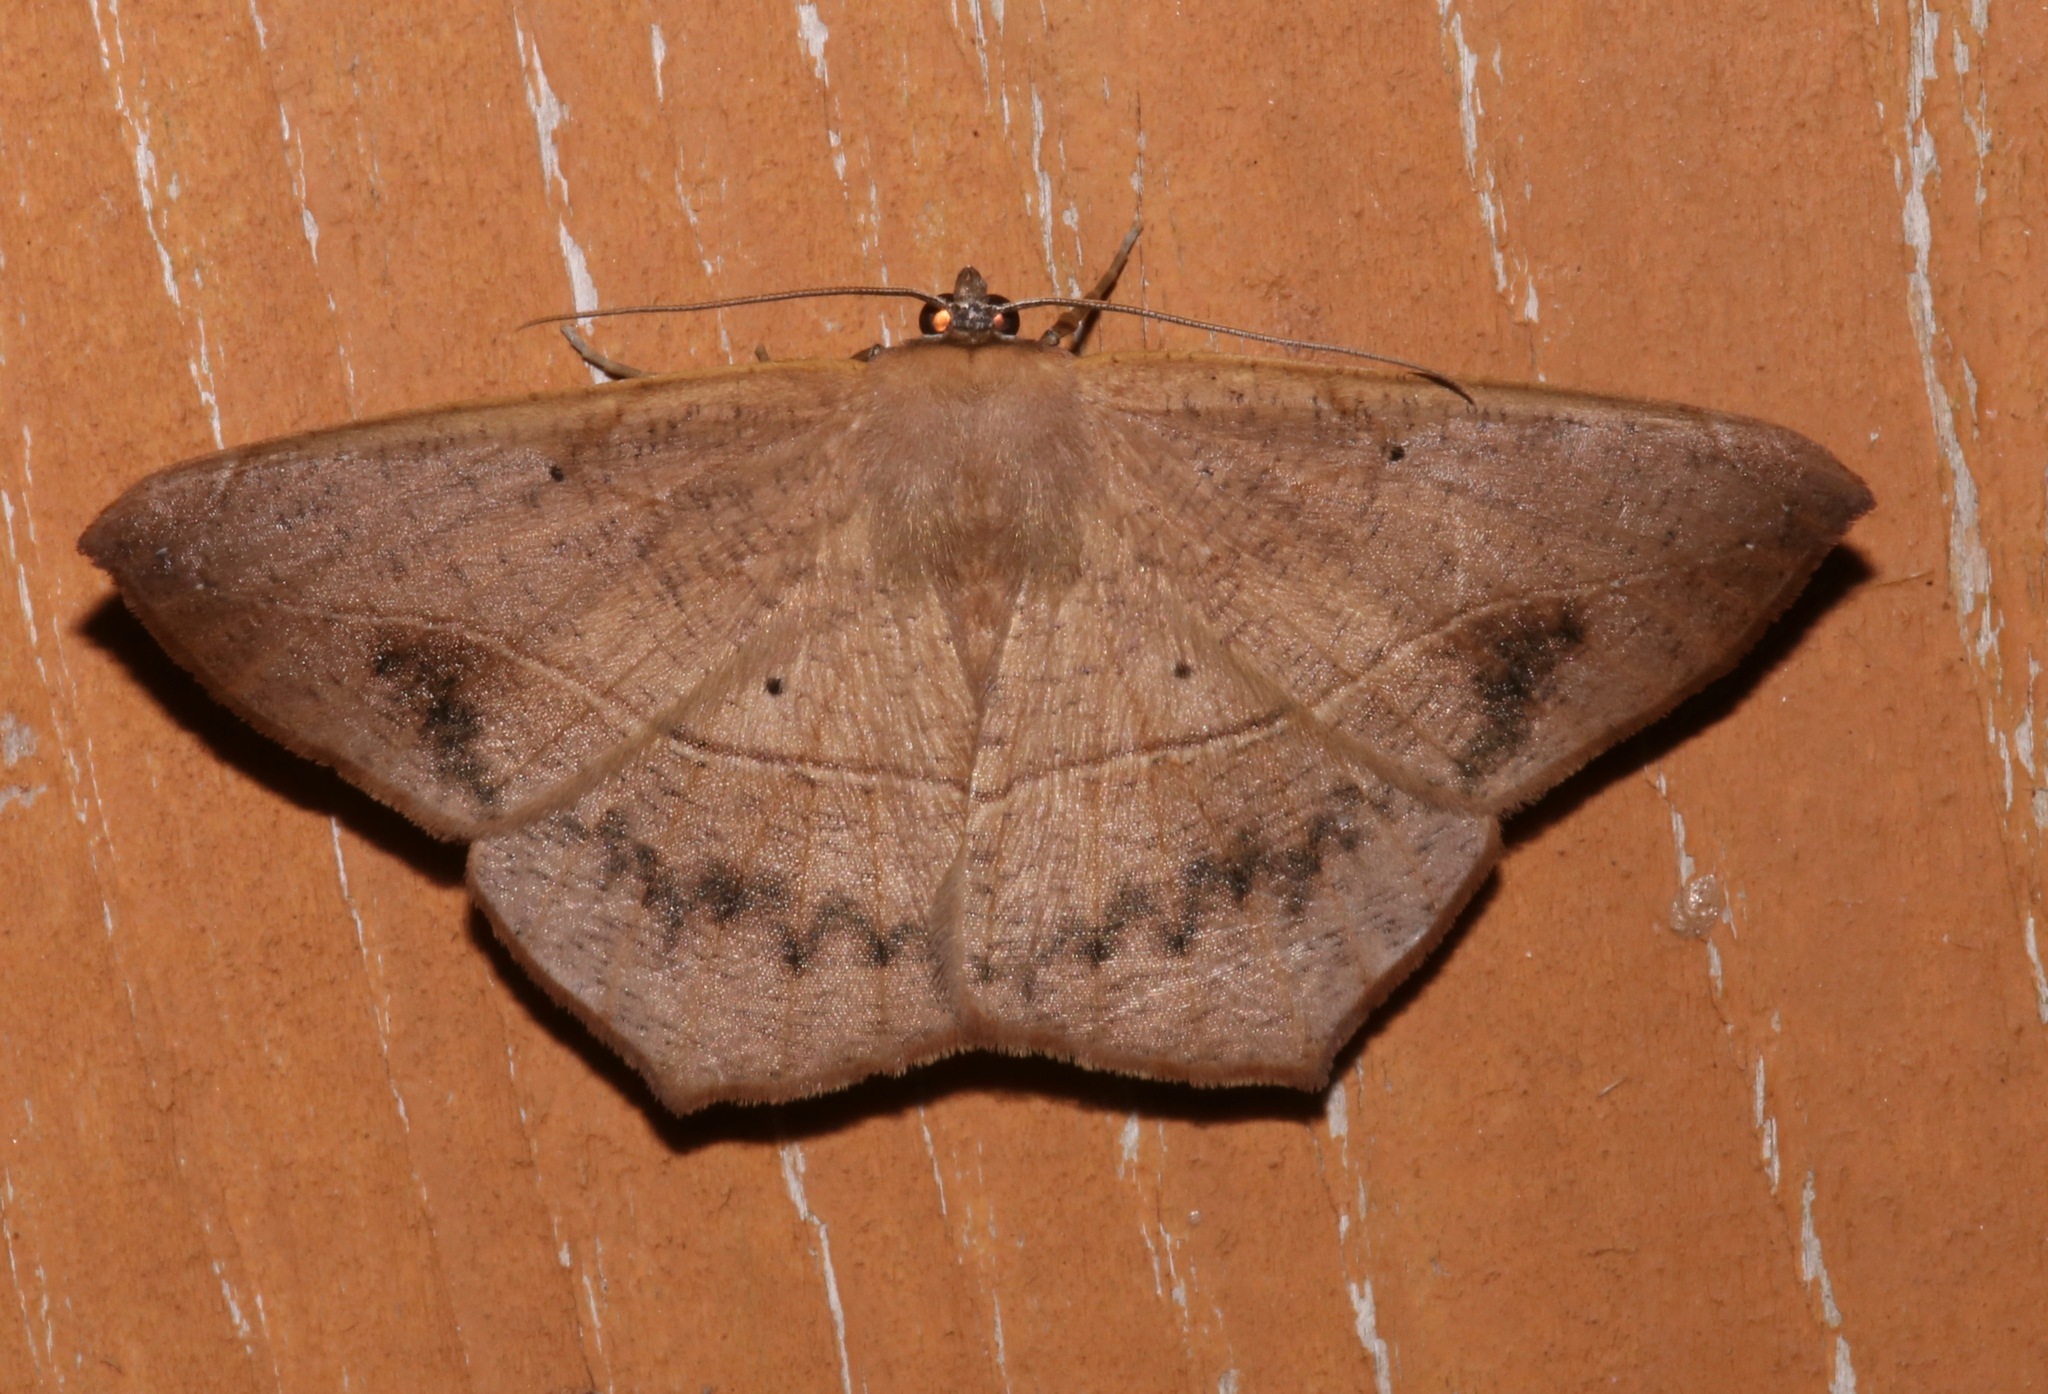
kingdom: Animalia
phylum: Arthropoda
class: Insecta
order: Lepidoptera
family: Geometridae
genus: Prochoerodes
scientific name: Prochoerodes lineola
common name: Large maple spanworm
